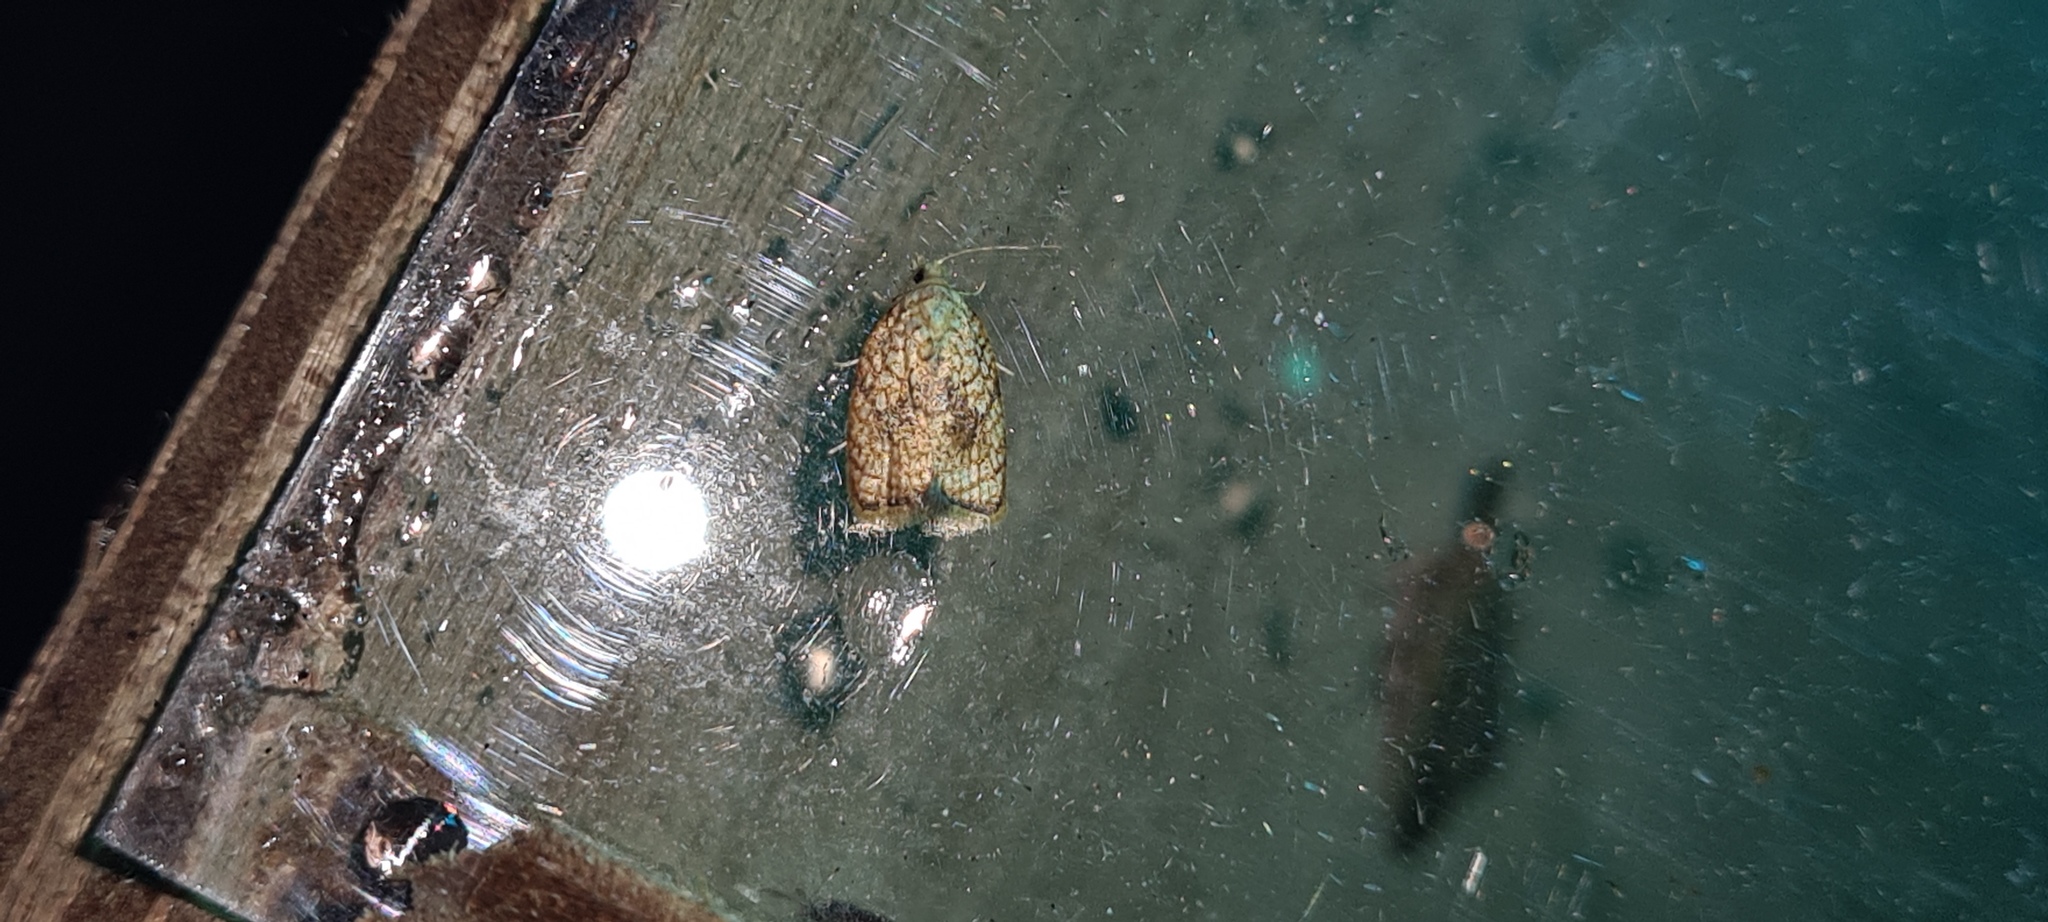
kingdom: Animalia
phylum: Arthropoda
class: Insecta
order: Lepidoptera
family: Tortricidae
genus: Acleris
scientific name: Acleris forsskaleana
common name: Maple button
